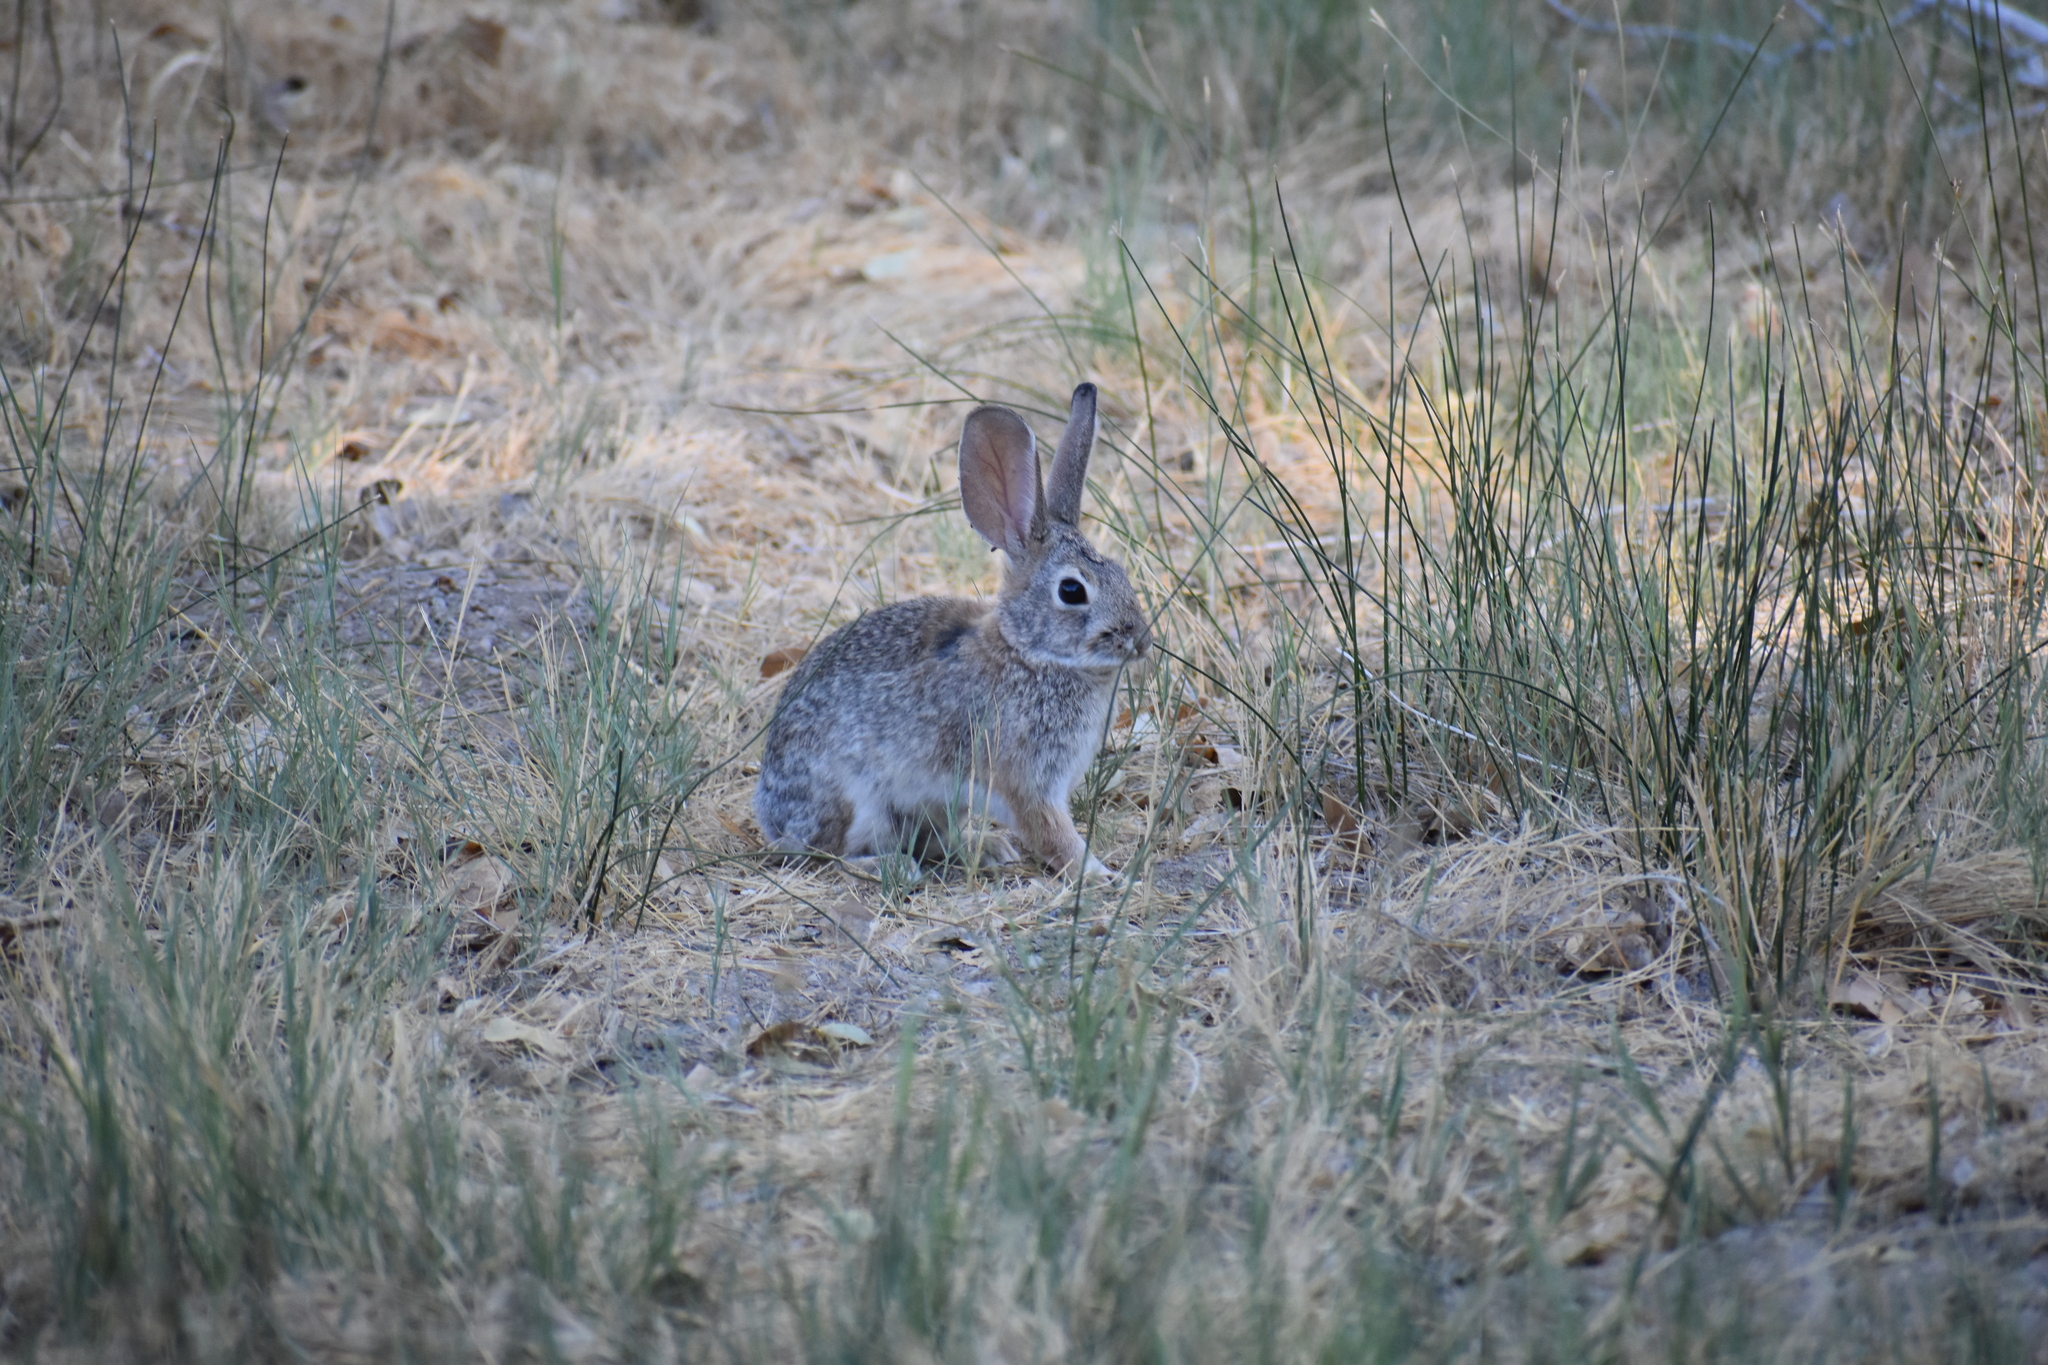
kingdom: Animalia
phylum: Chordata
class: Mammalia
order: Lagomorpha
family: Leporidae
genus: Sylvilagus
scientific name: Sylvilagus audubonii
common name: Desert cottontail
